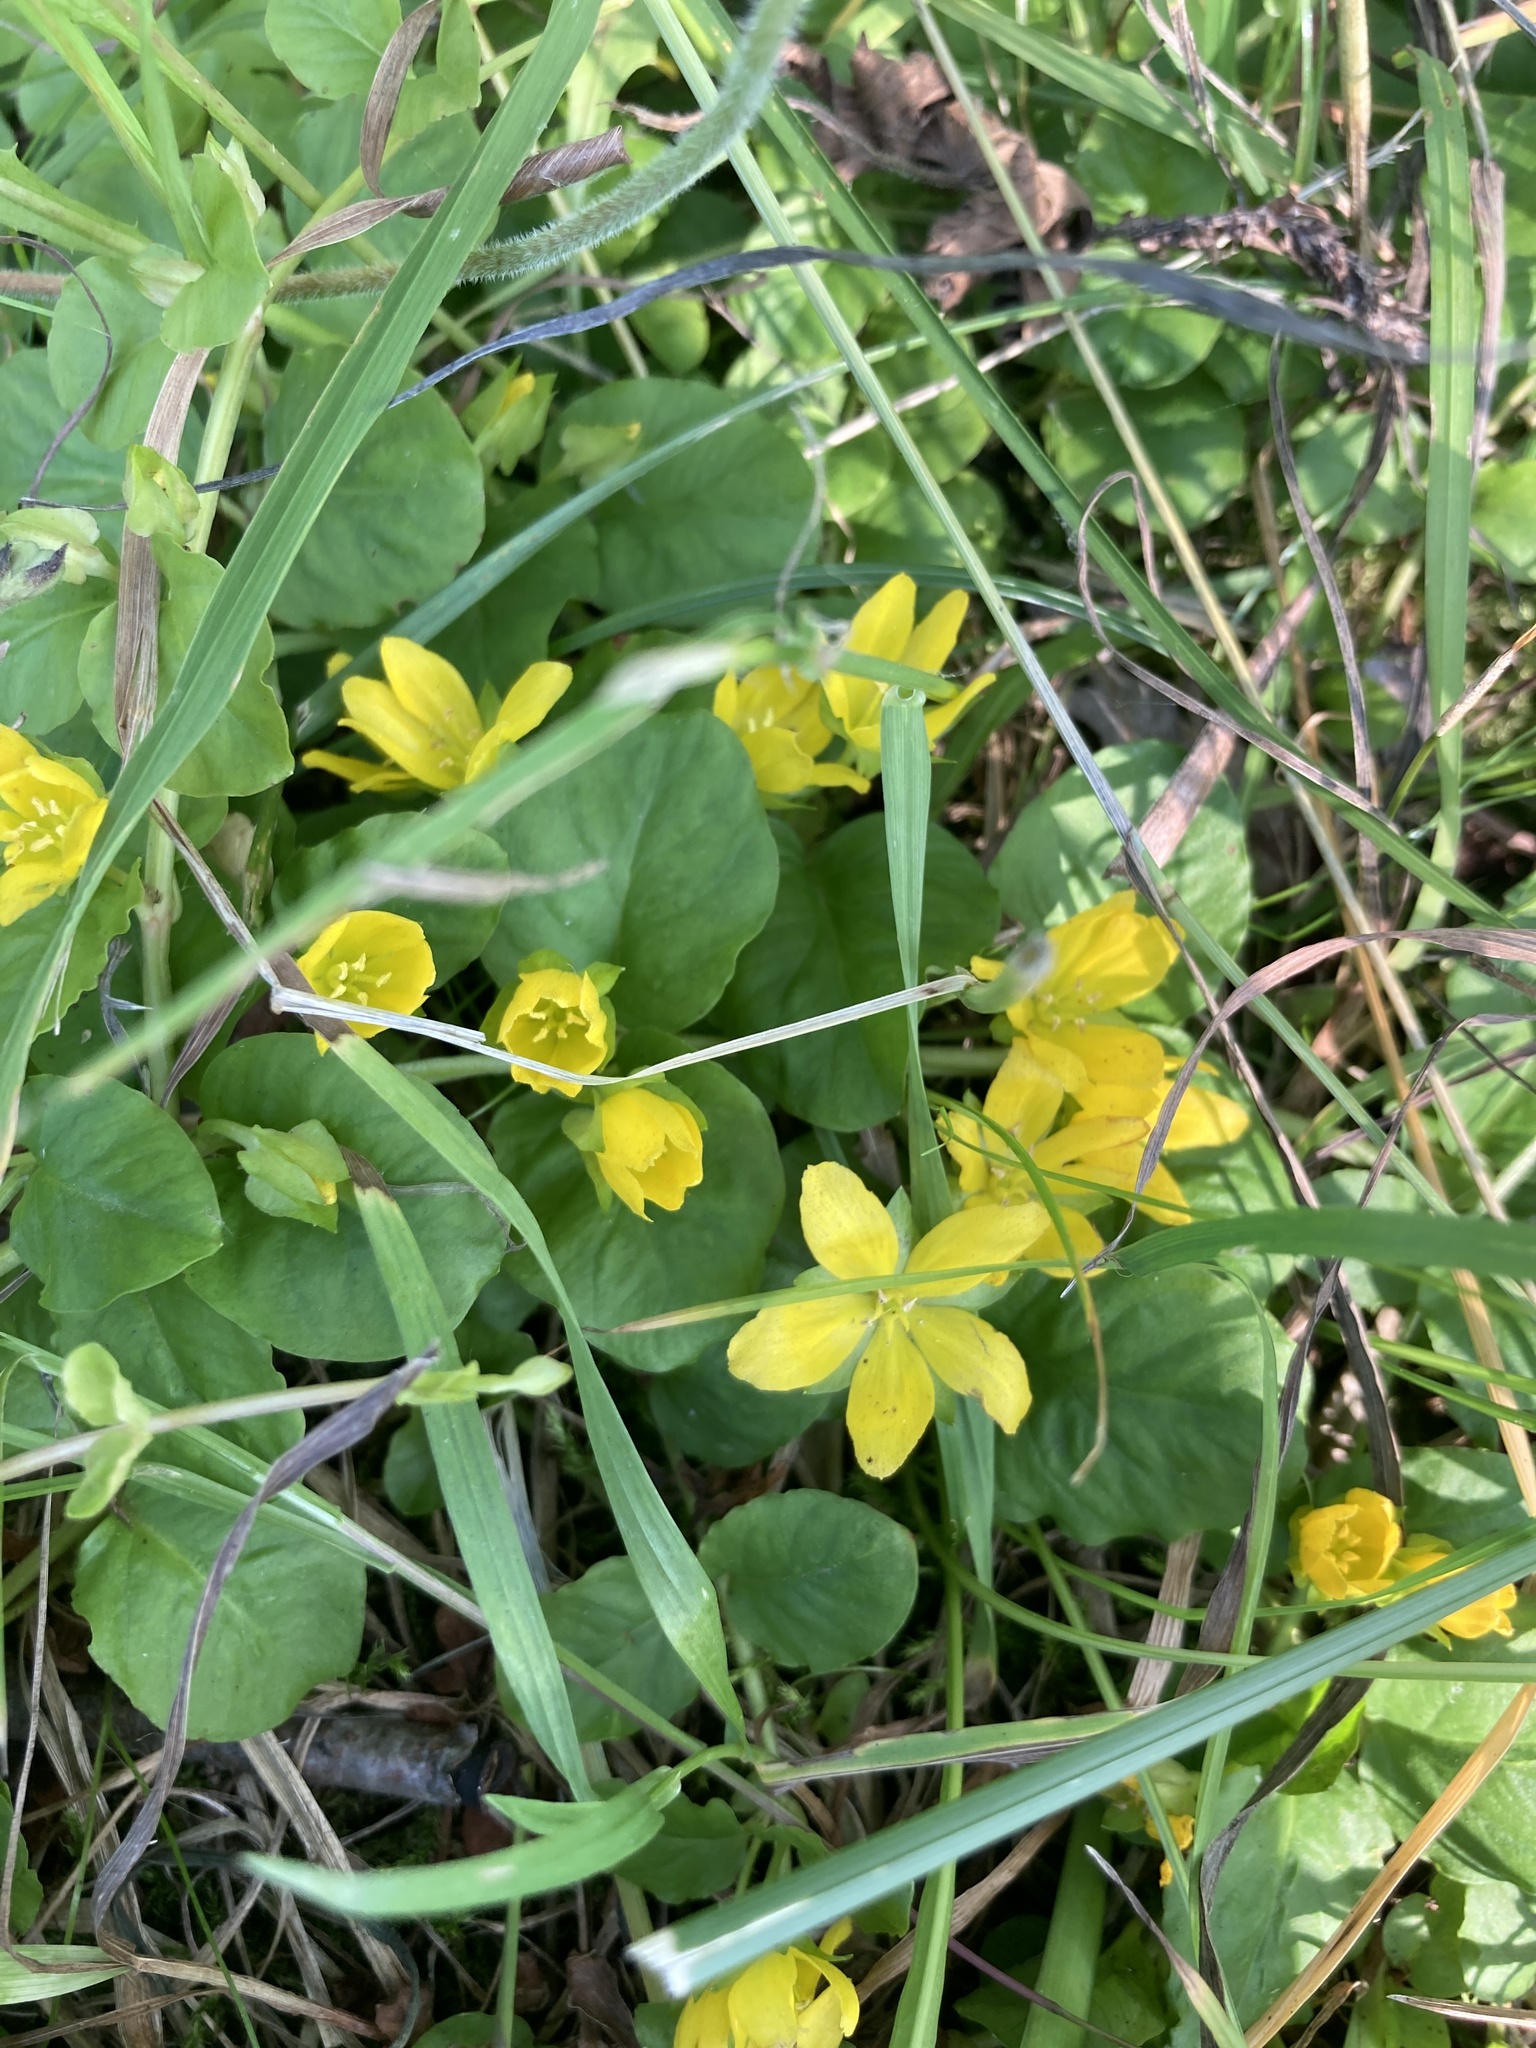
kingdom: Plantae
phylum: Tracheophyta
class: Magnoliopsida
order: Ericales
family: Primulaceae
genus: Lysimachia
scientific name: Lysimachia nummularia
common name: Moneywort
